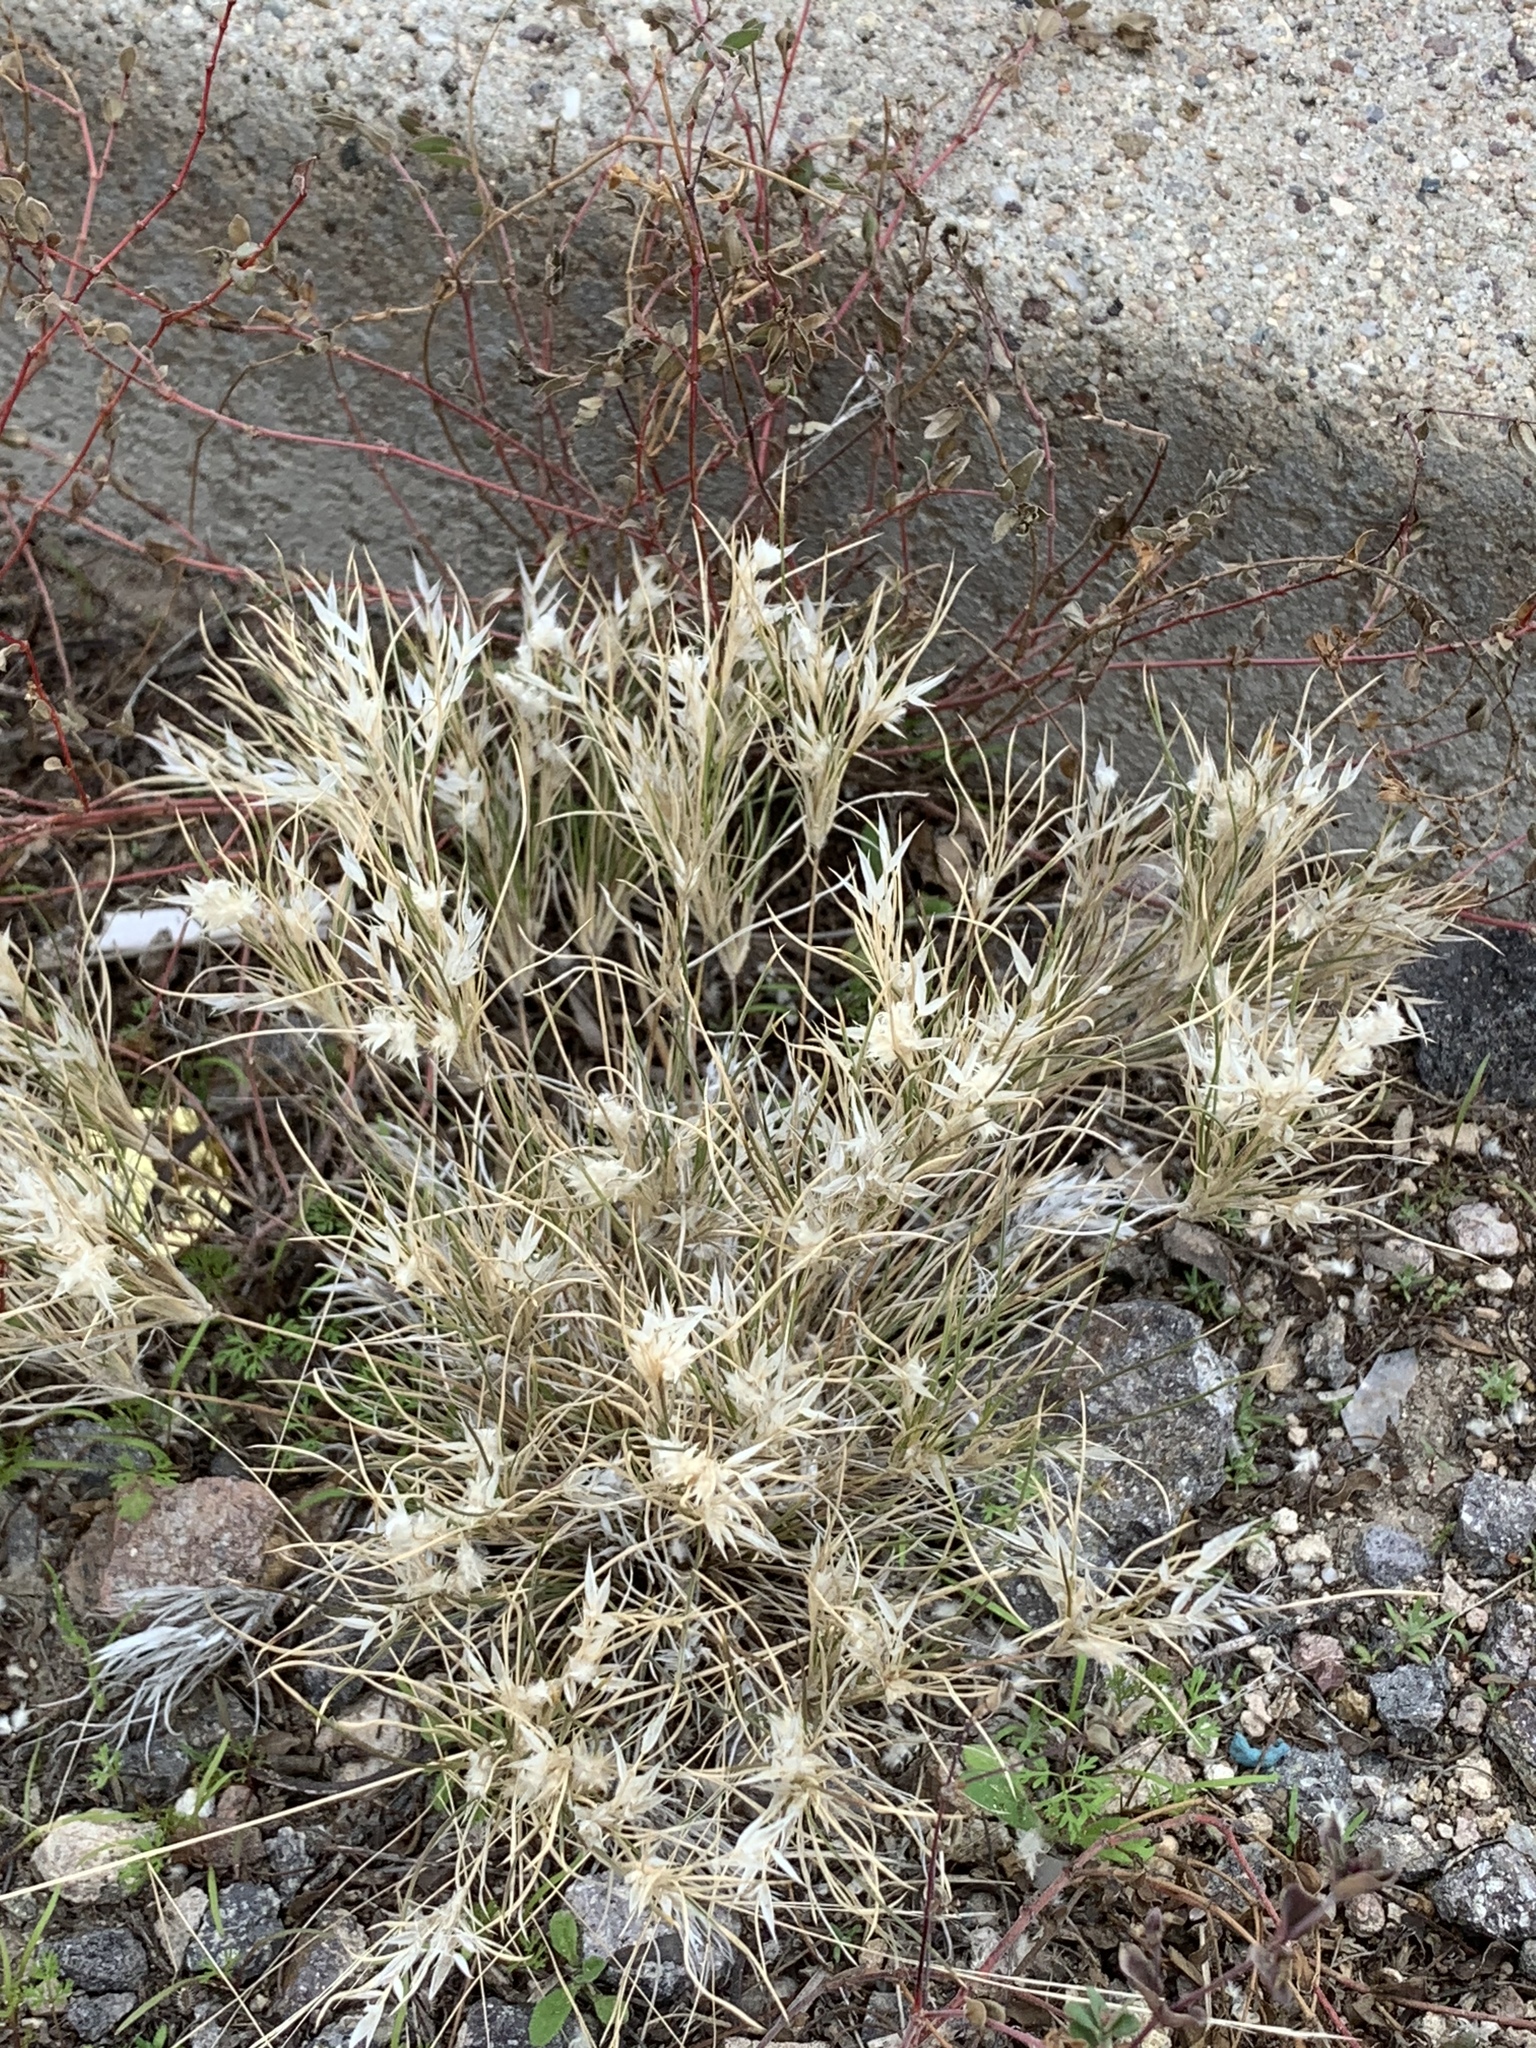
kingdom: Plantae
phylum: Tracheophyta
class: Liliopsida
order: Poales
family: Poaceae
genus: Dasyochloa
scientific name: Dasyochloa pulchella
